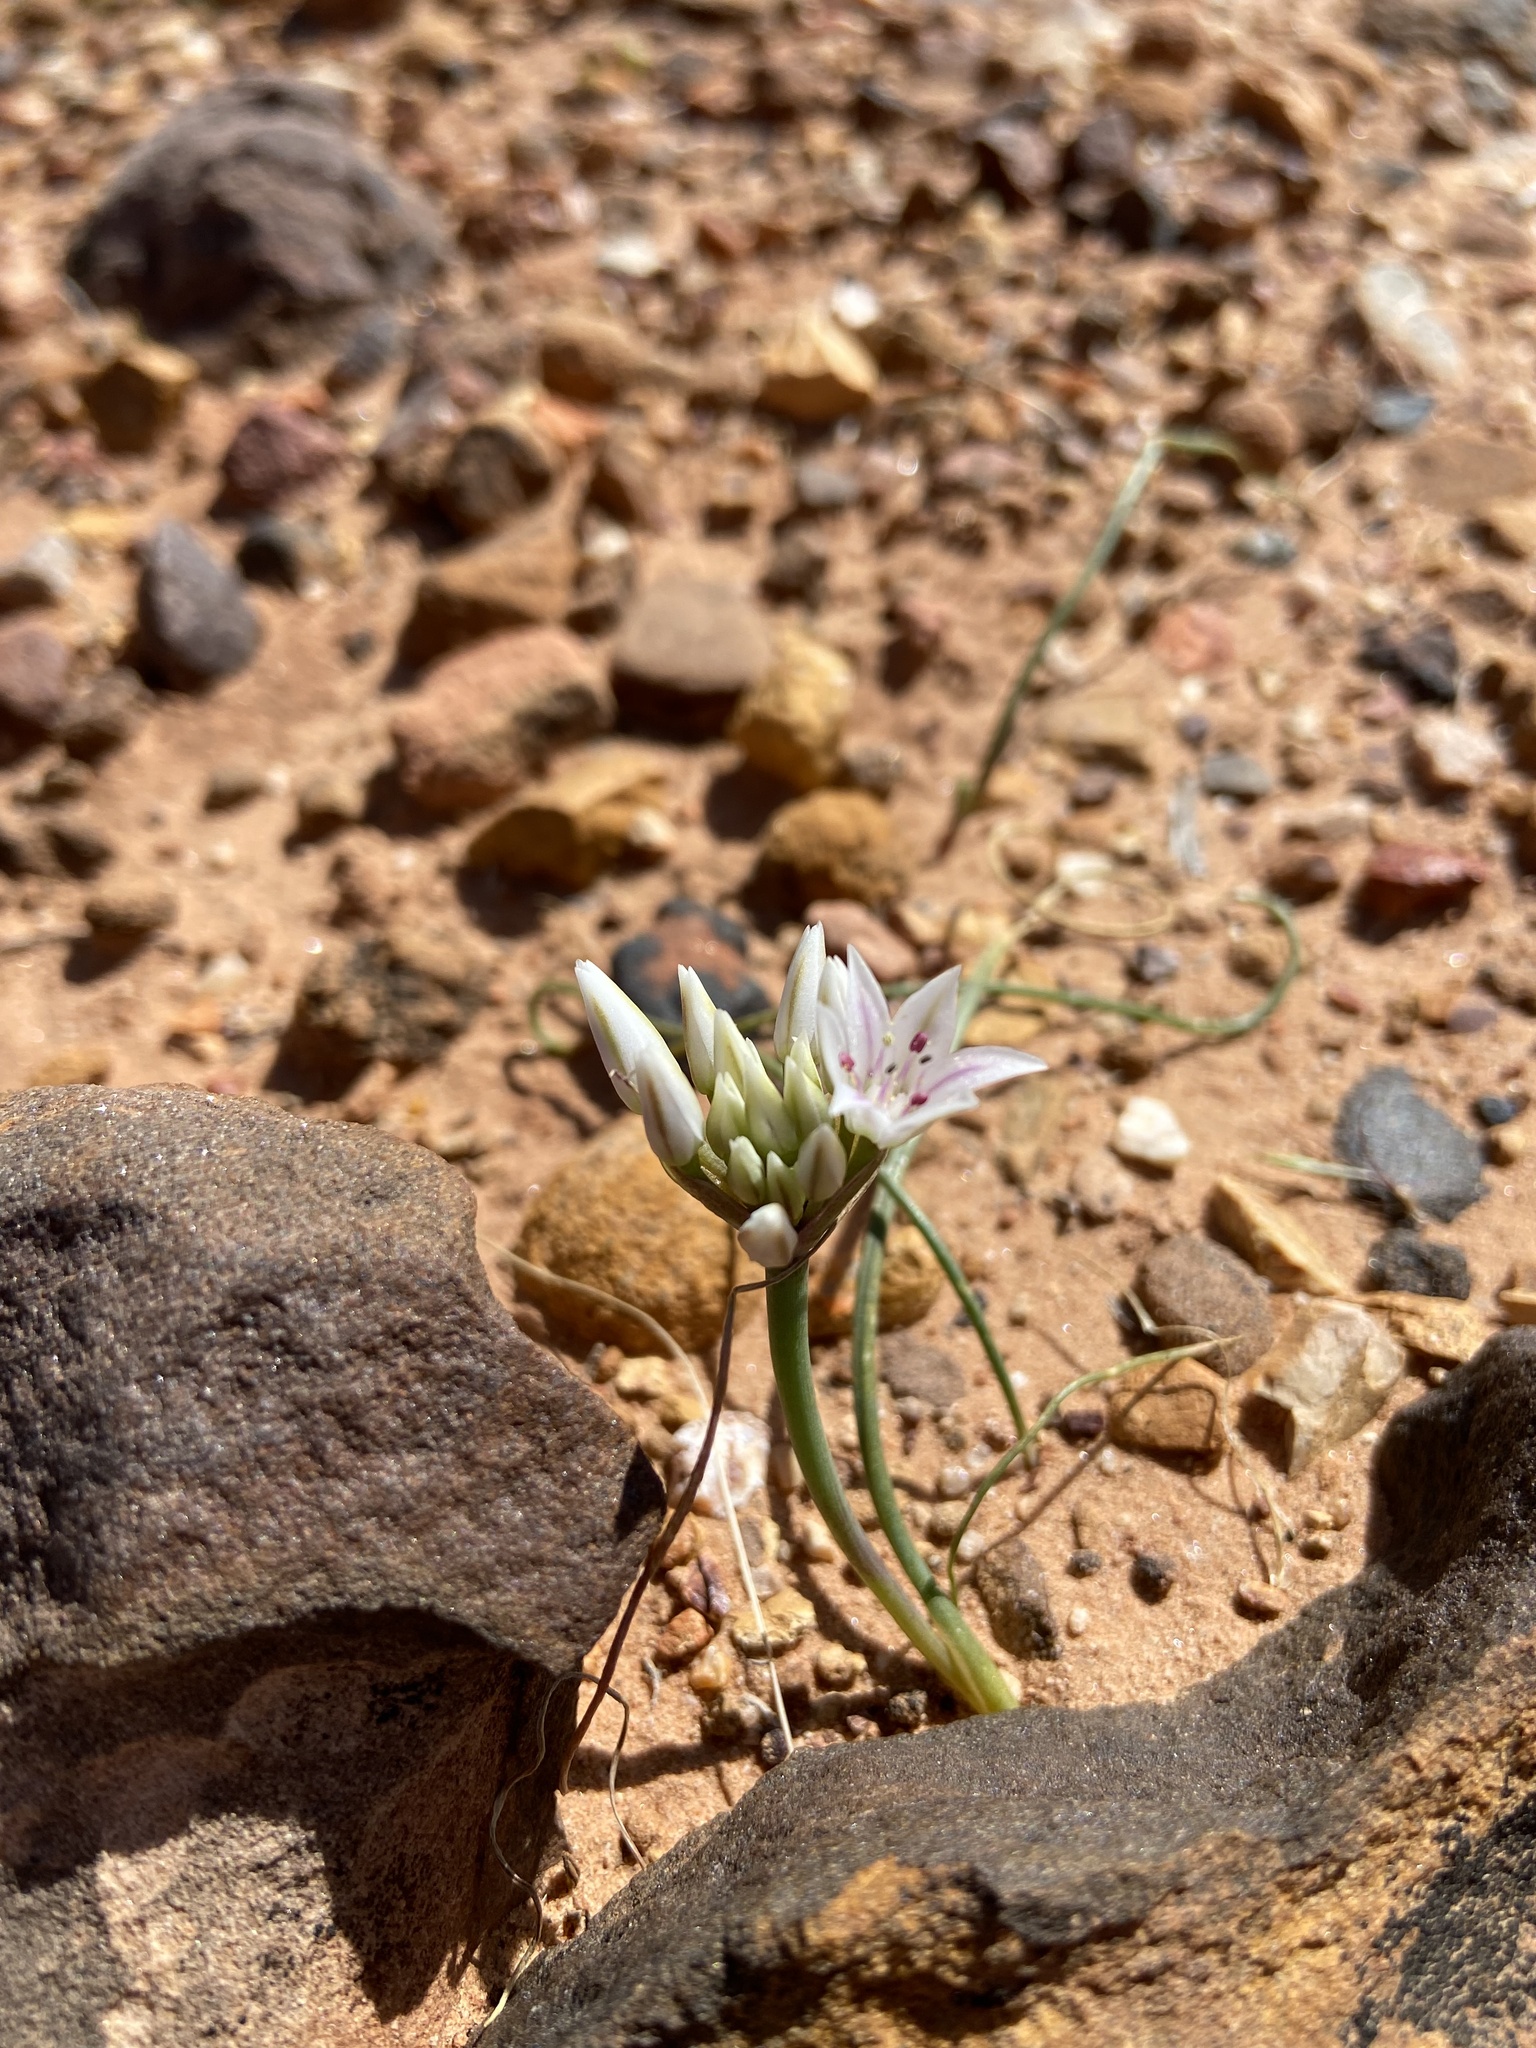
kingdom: Plantae
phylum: Tracheophyta
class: Liliopsida
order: Asparagales
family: Amaryllidaceae
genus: Allium
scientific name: Allium nevadense
